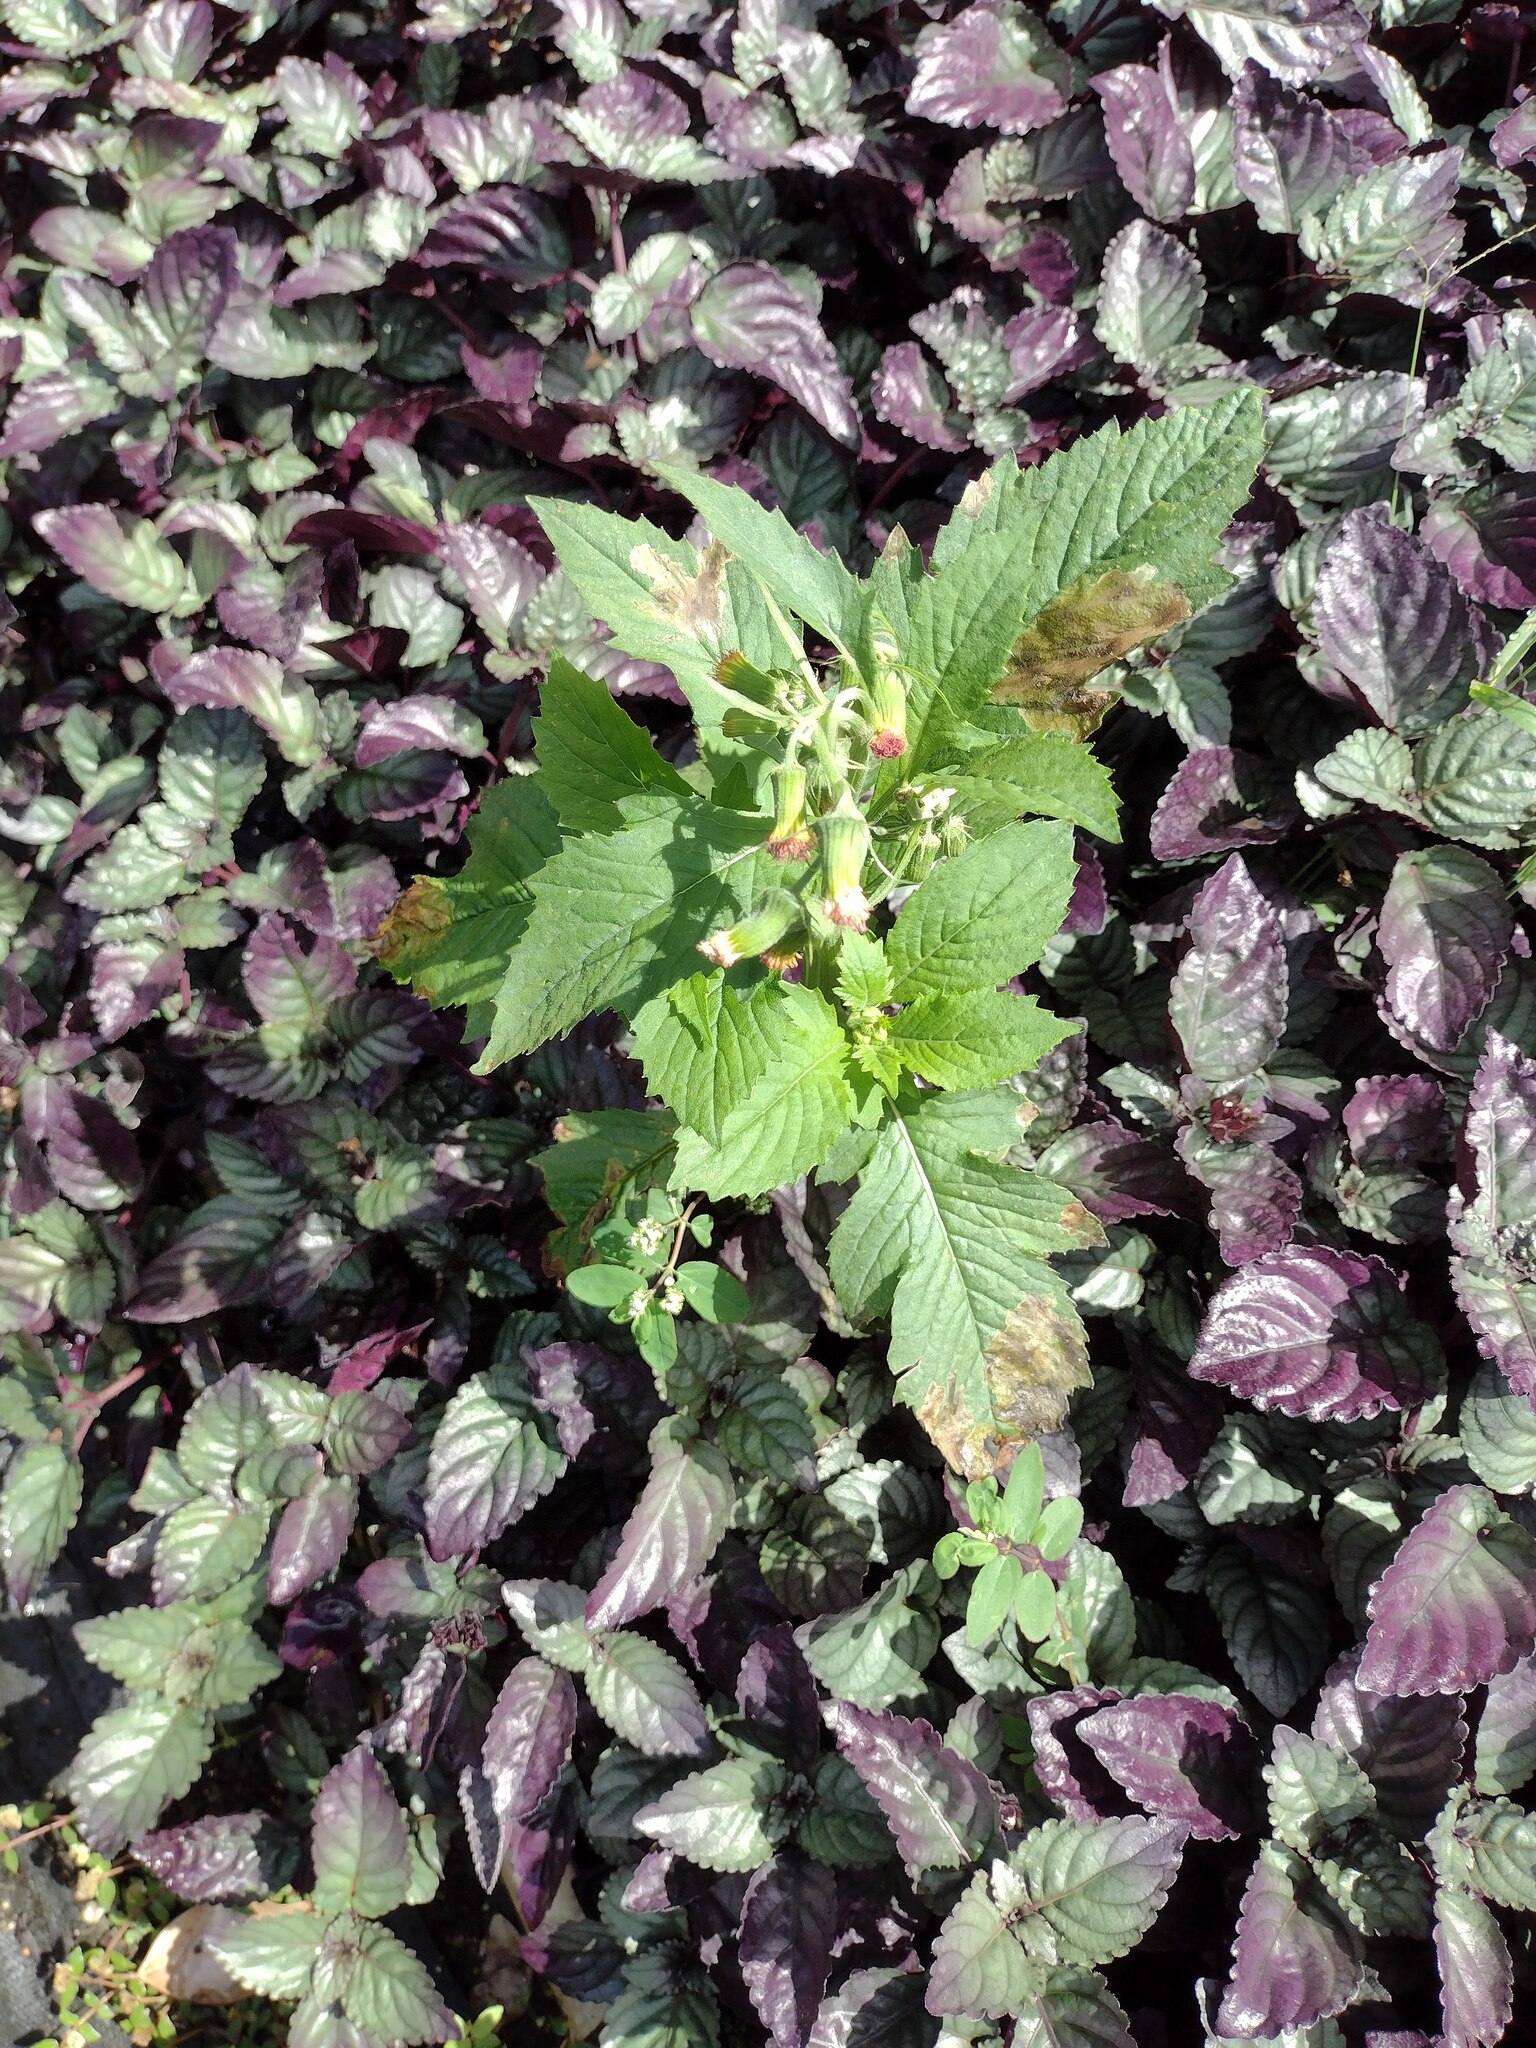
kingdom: Plantae
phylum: Tracheophyta
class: Magnoliopsida
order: Asterales
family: Asteraceae
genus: Crassocephalum
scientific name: Crassocephalum crepidioides
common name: Redflower ragleaf
